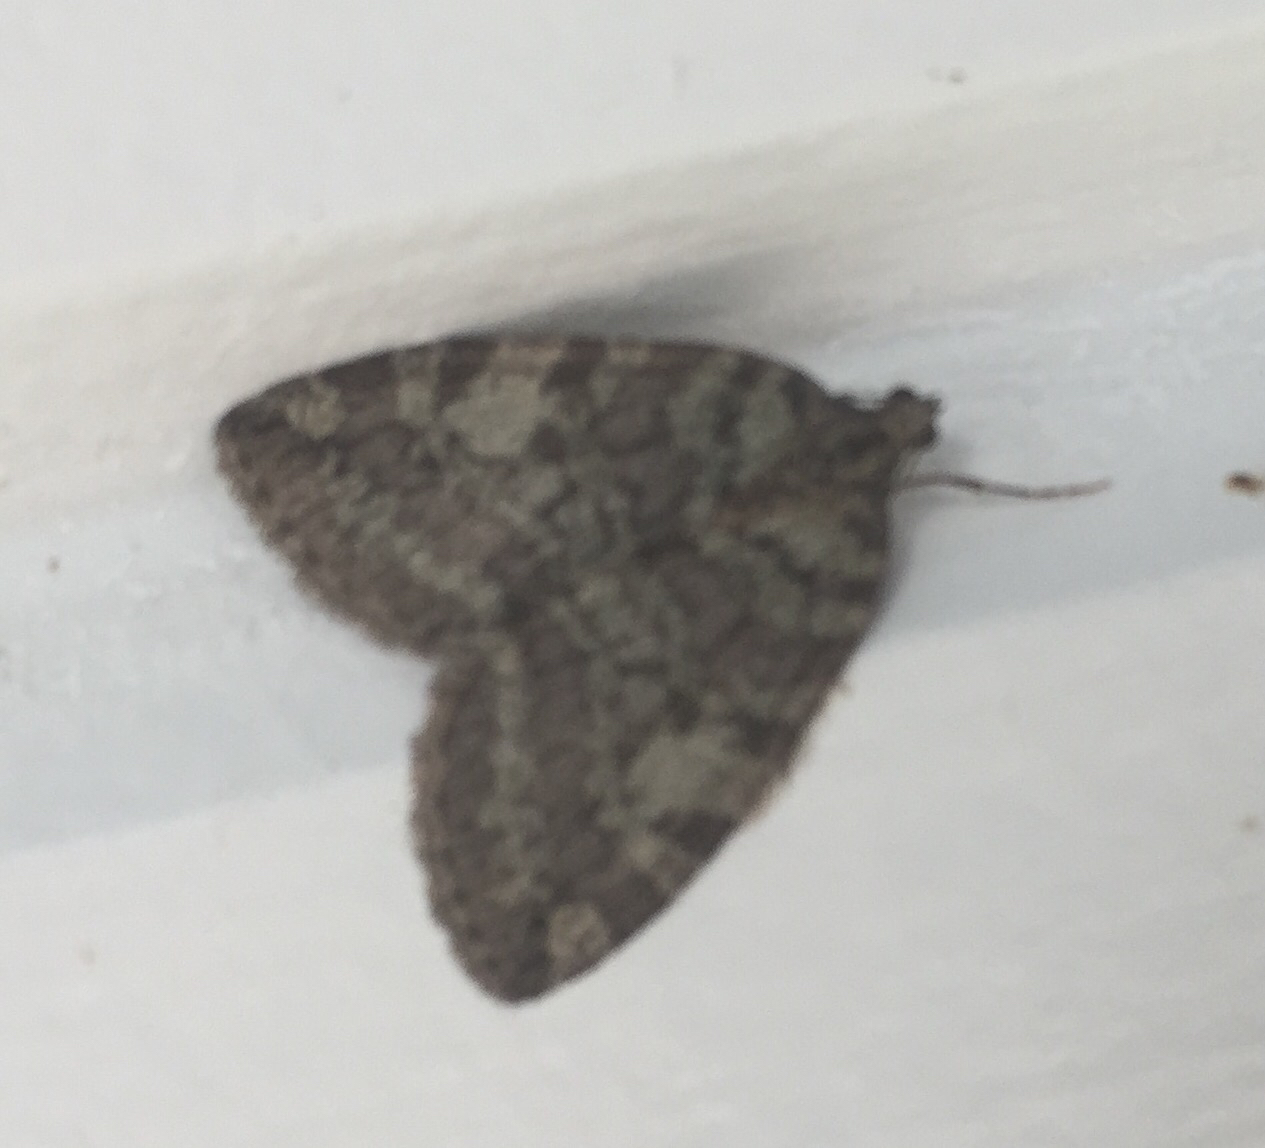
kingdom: Animalia
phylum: Arthropoda
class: Insecta
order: Lepidoptera
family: Geometridae
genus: Hydriomena
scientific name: Hydriomena nubilofasciata
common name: Oak winter highflier moth
